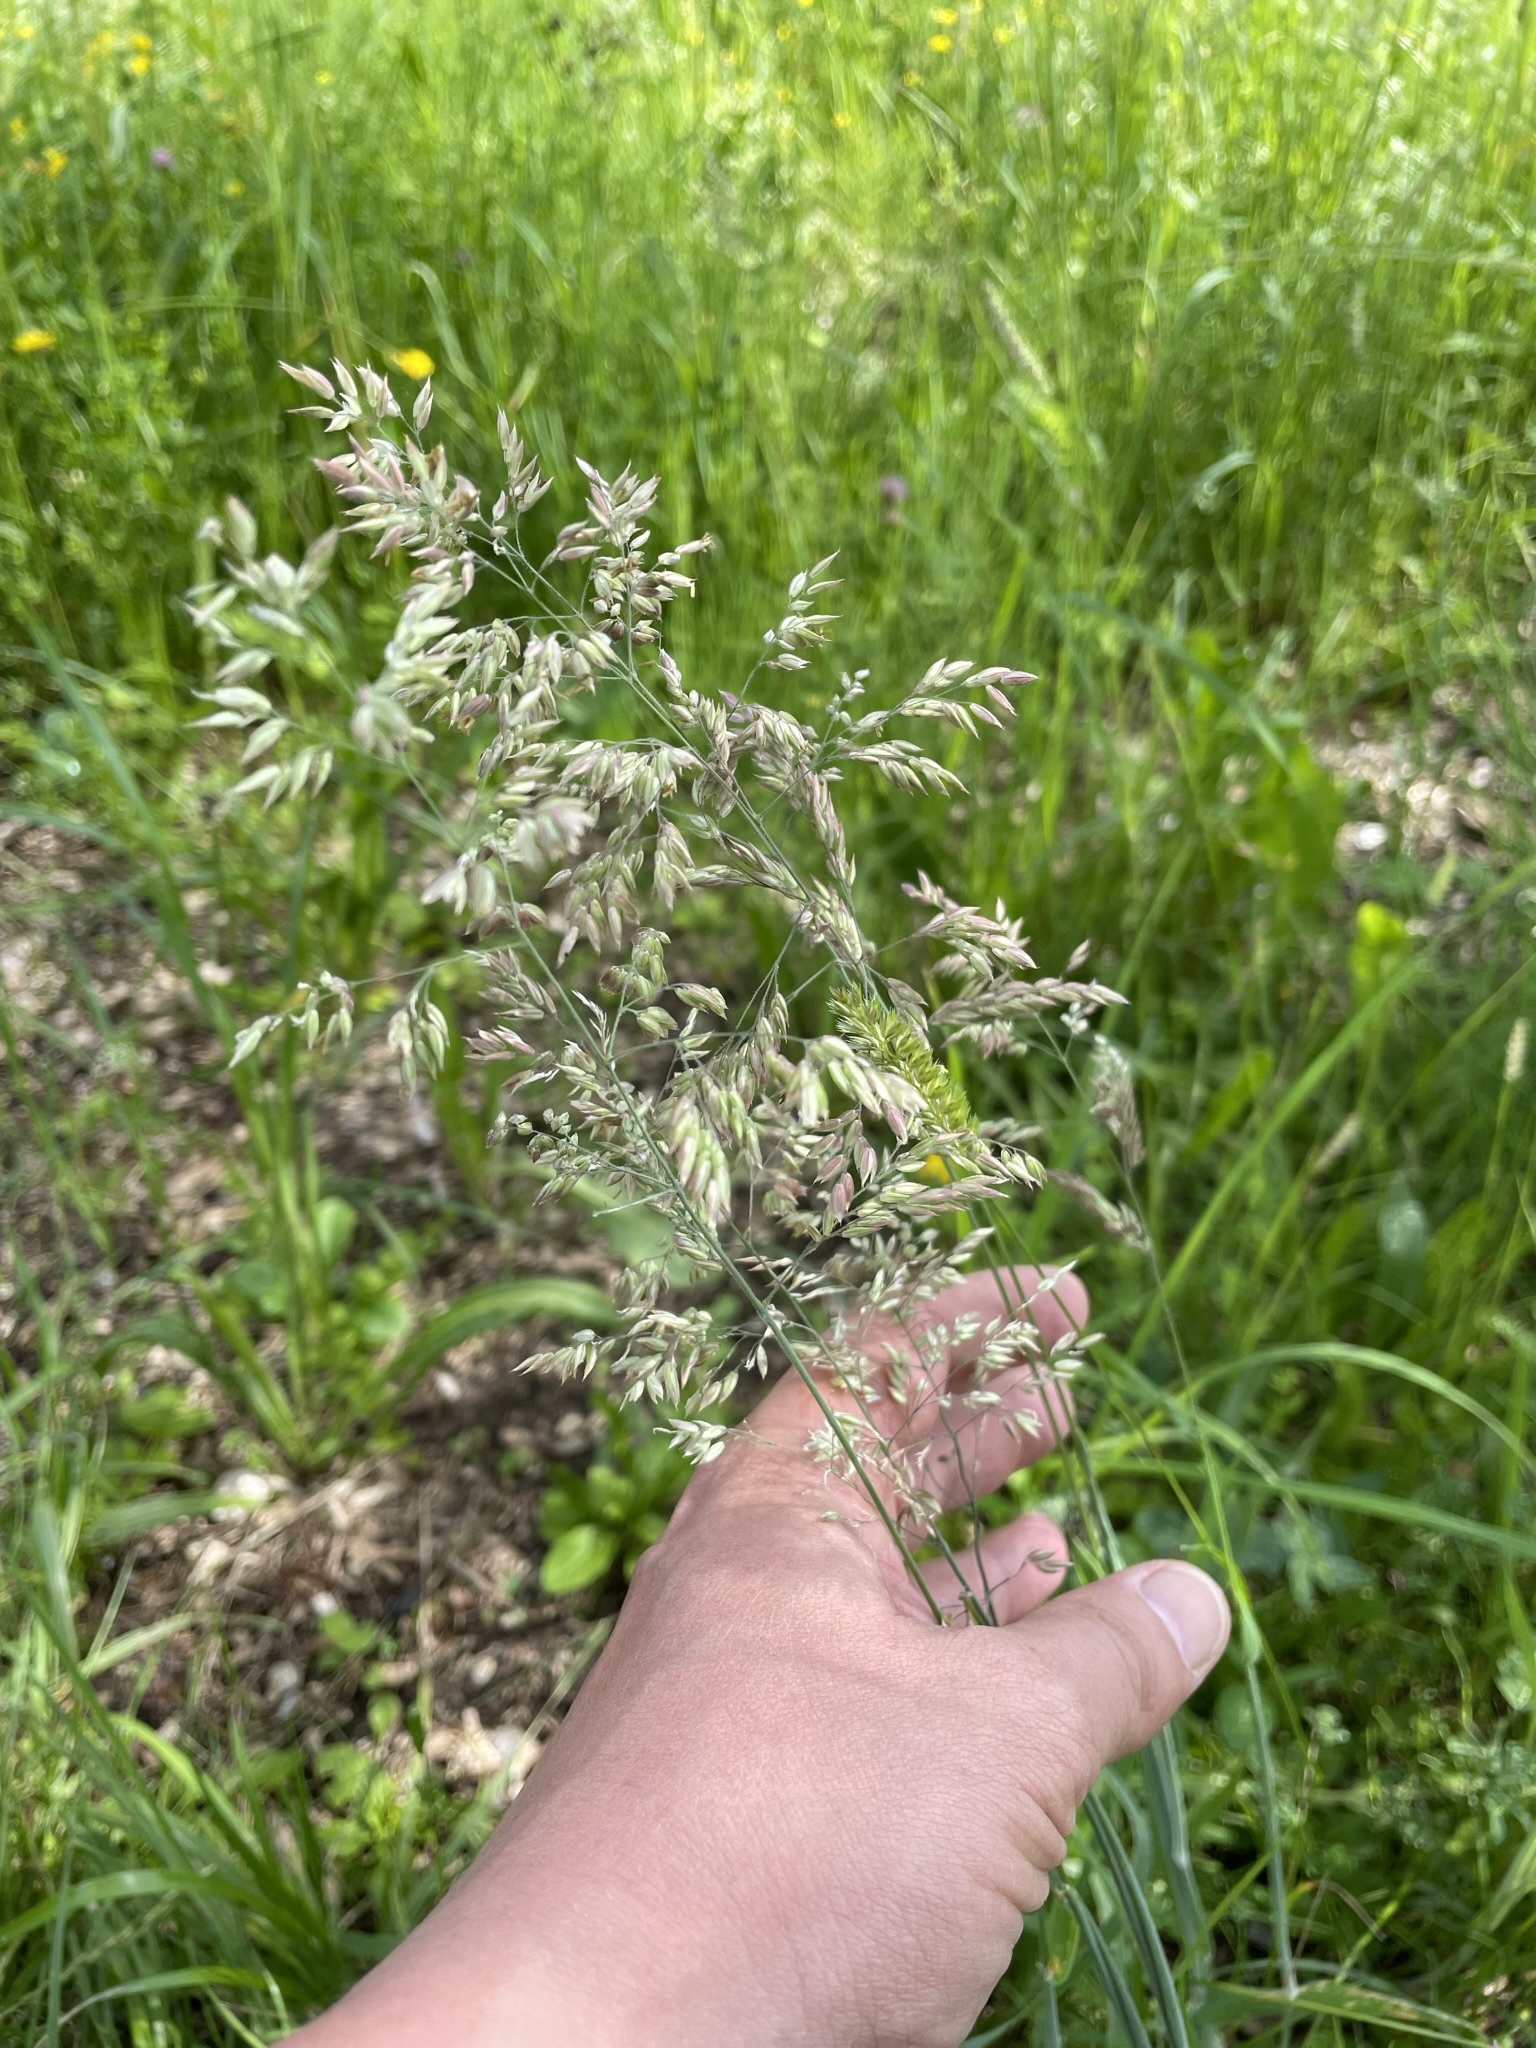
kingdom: Plantae
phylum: Tracheophyta
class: Liliopsida
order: Poales
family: Poaceae
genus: Holcus
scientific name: Holcus lanatus
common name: Yorkshire-fog
